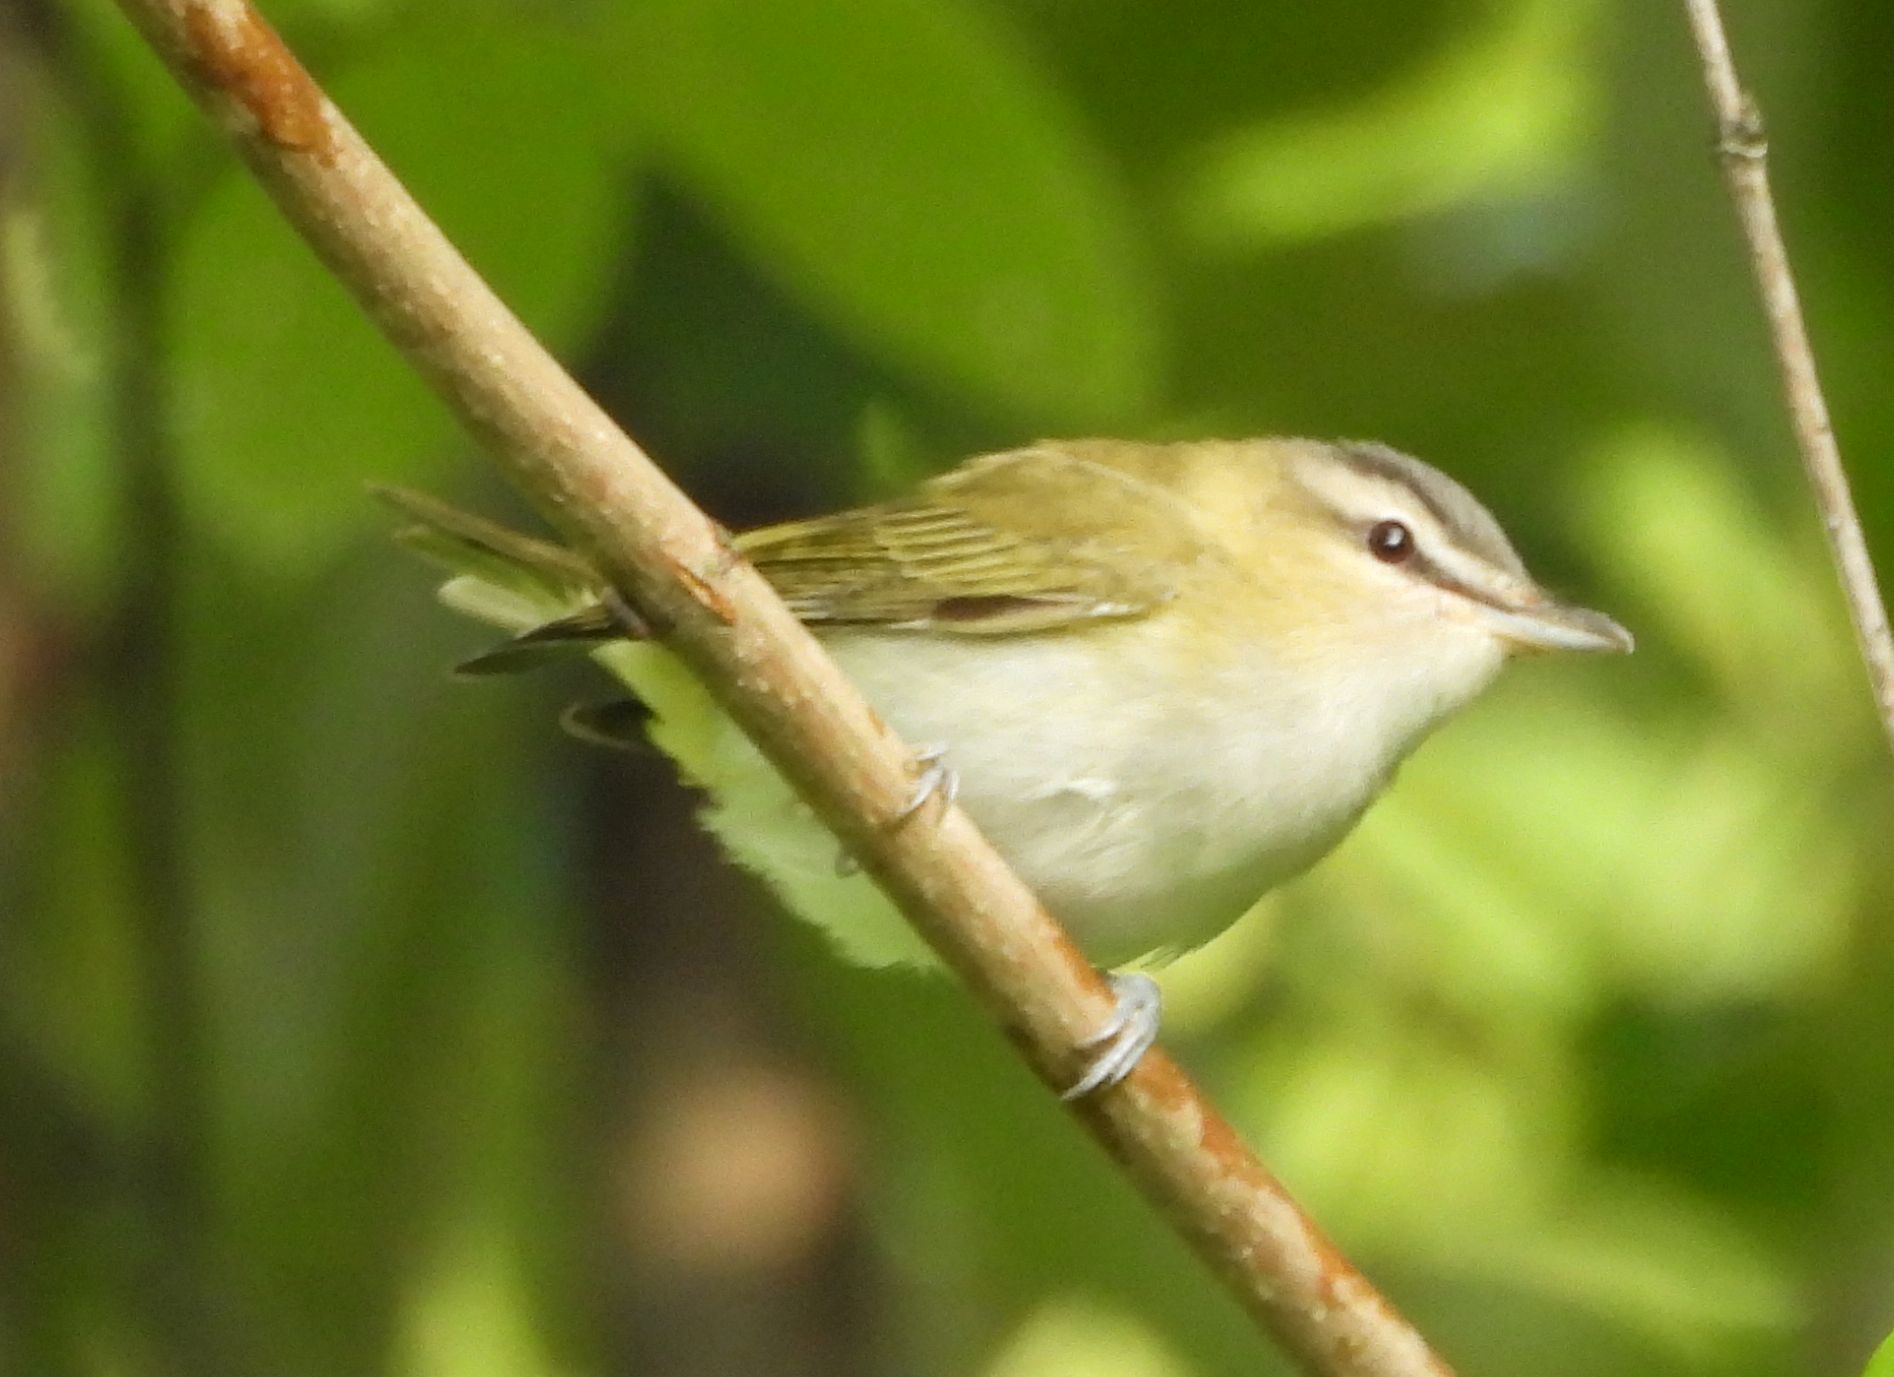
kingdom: Animalia
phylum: Chordata
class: Aves
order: Passeriformes
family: Vireonidae
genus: Vireo
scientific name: Vireo olivaceus
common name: Red-eyed vireo
